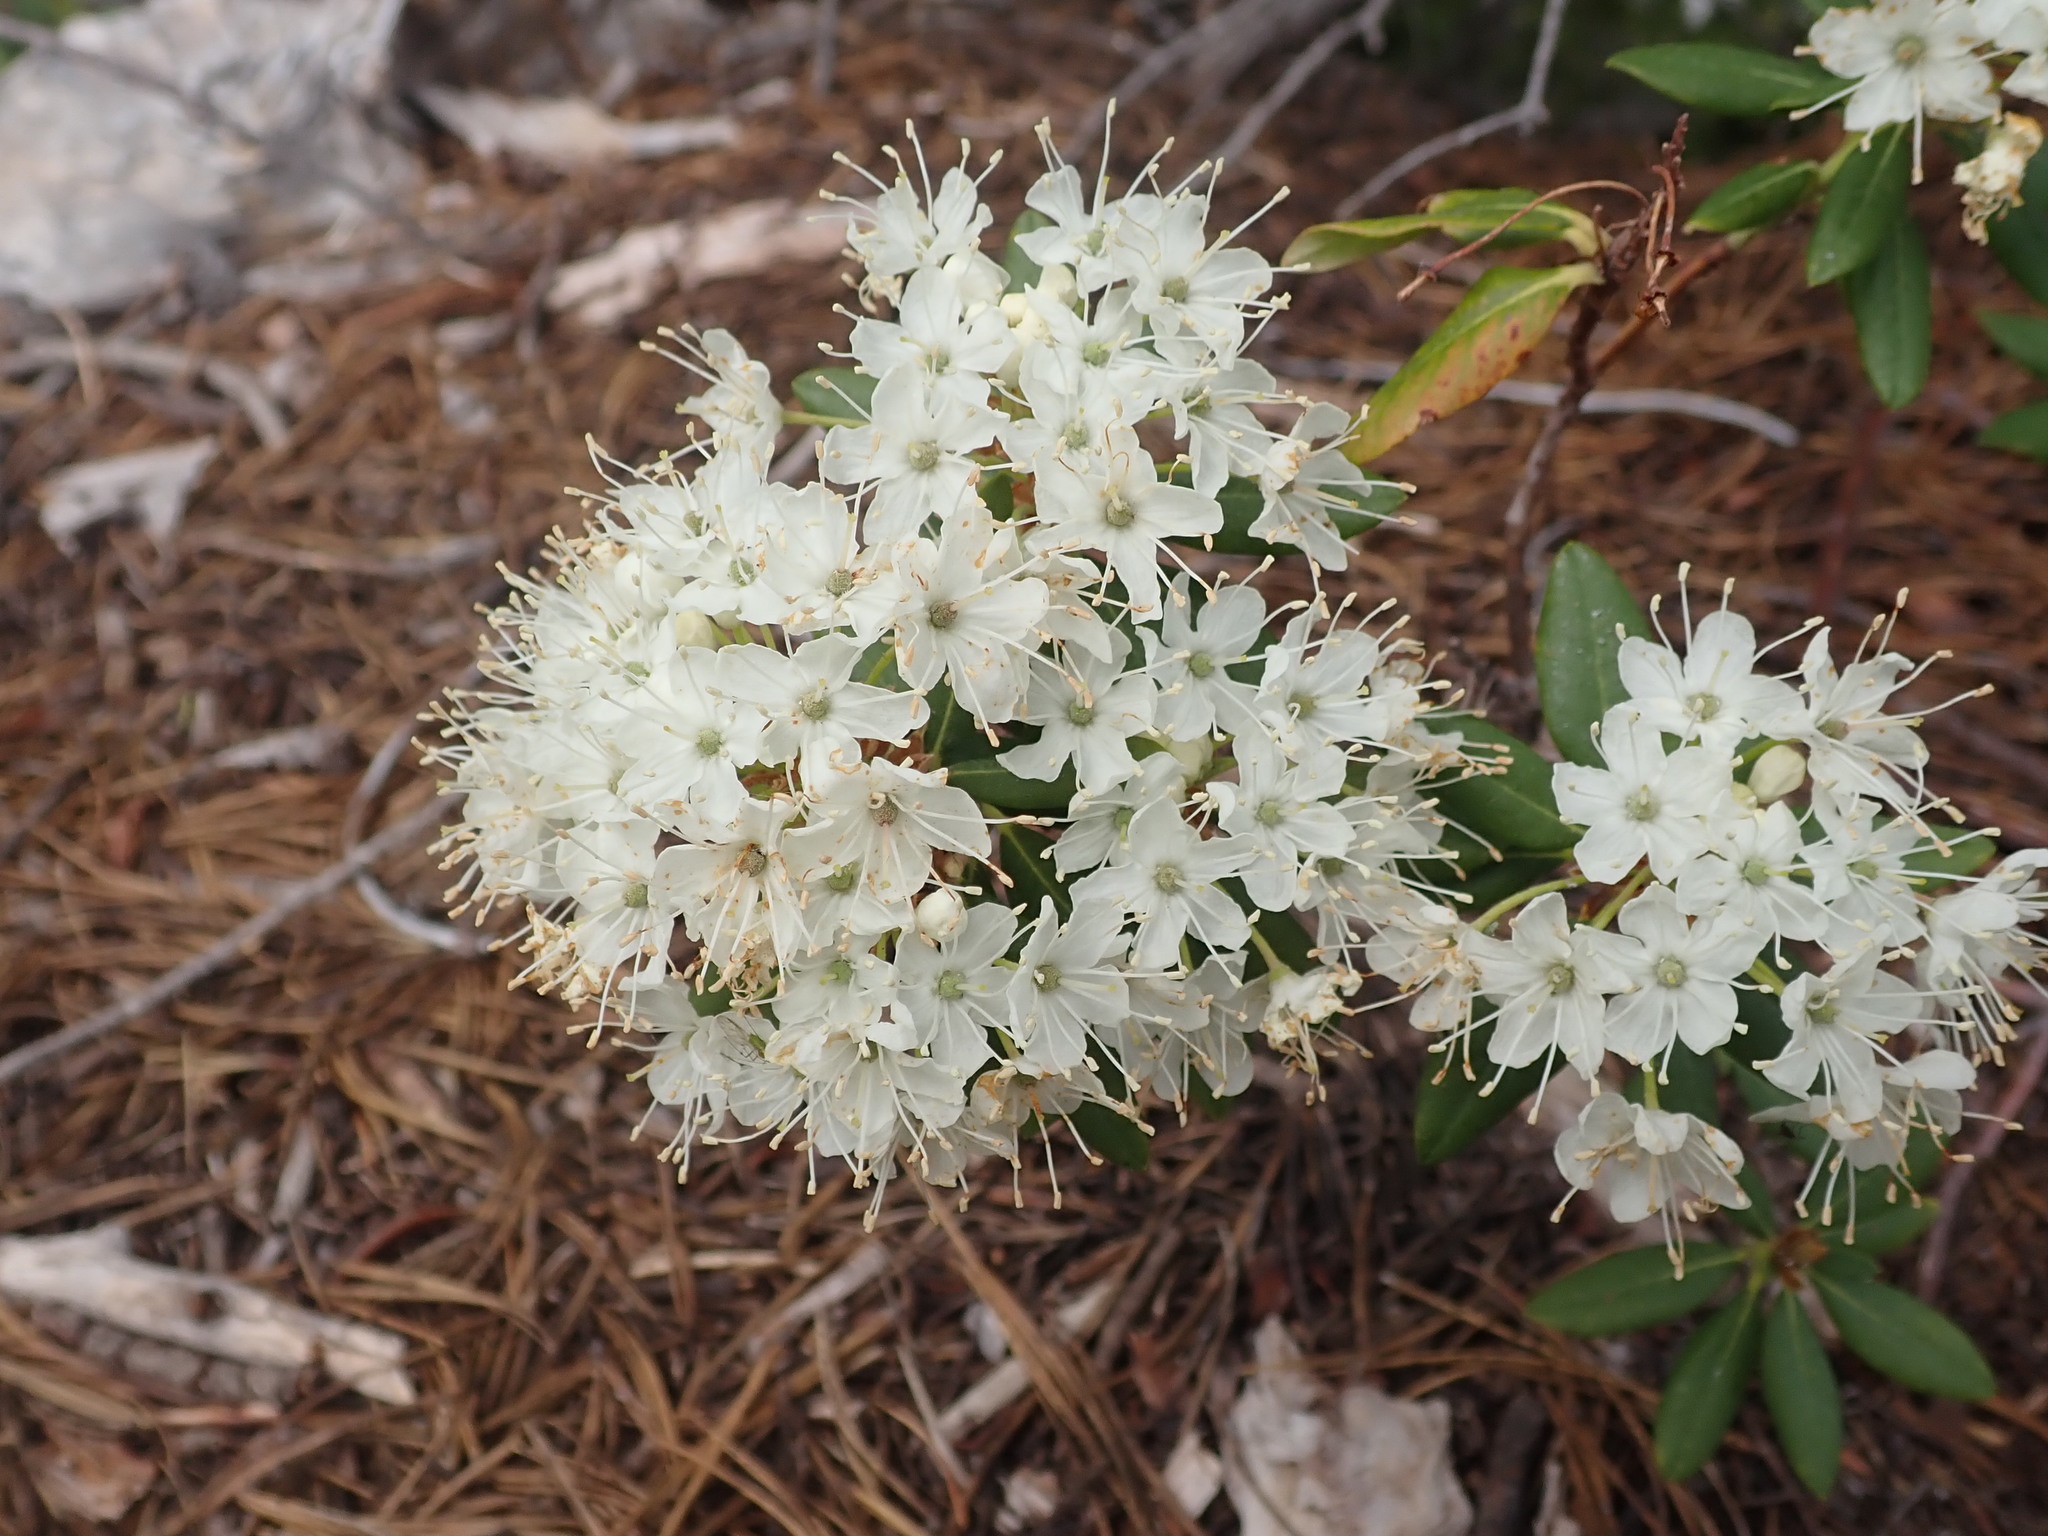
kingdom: Plantae
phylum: Tracheophyta
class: Magnoliopsida
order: Ericales
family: Ericaceae
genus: Rhododendron
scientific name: Rhododendron columbianum
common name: Western labrador tea
